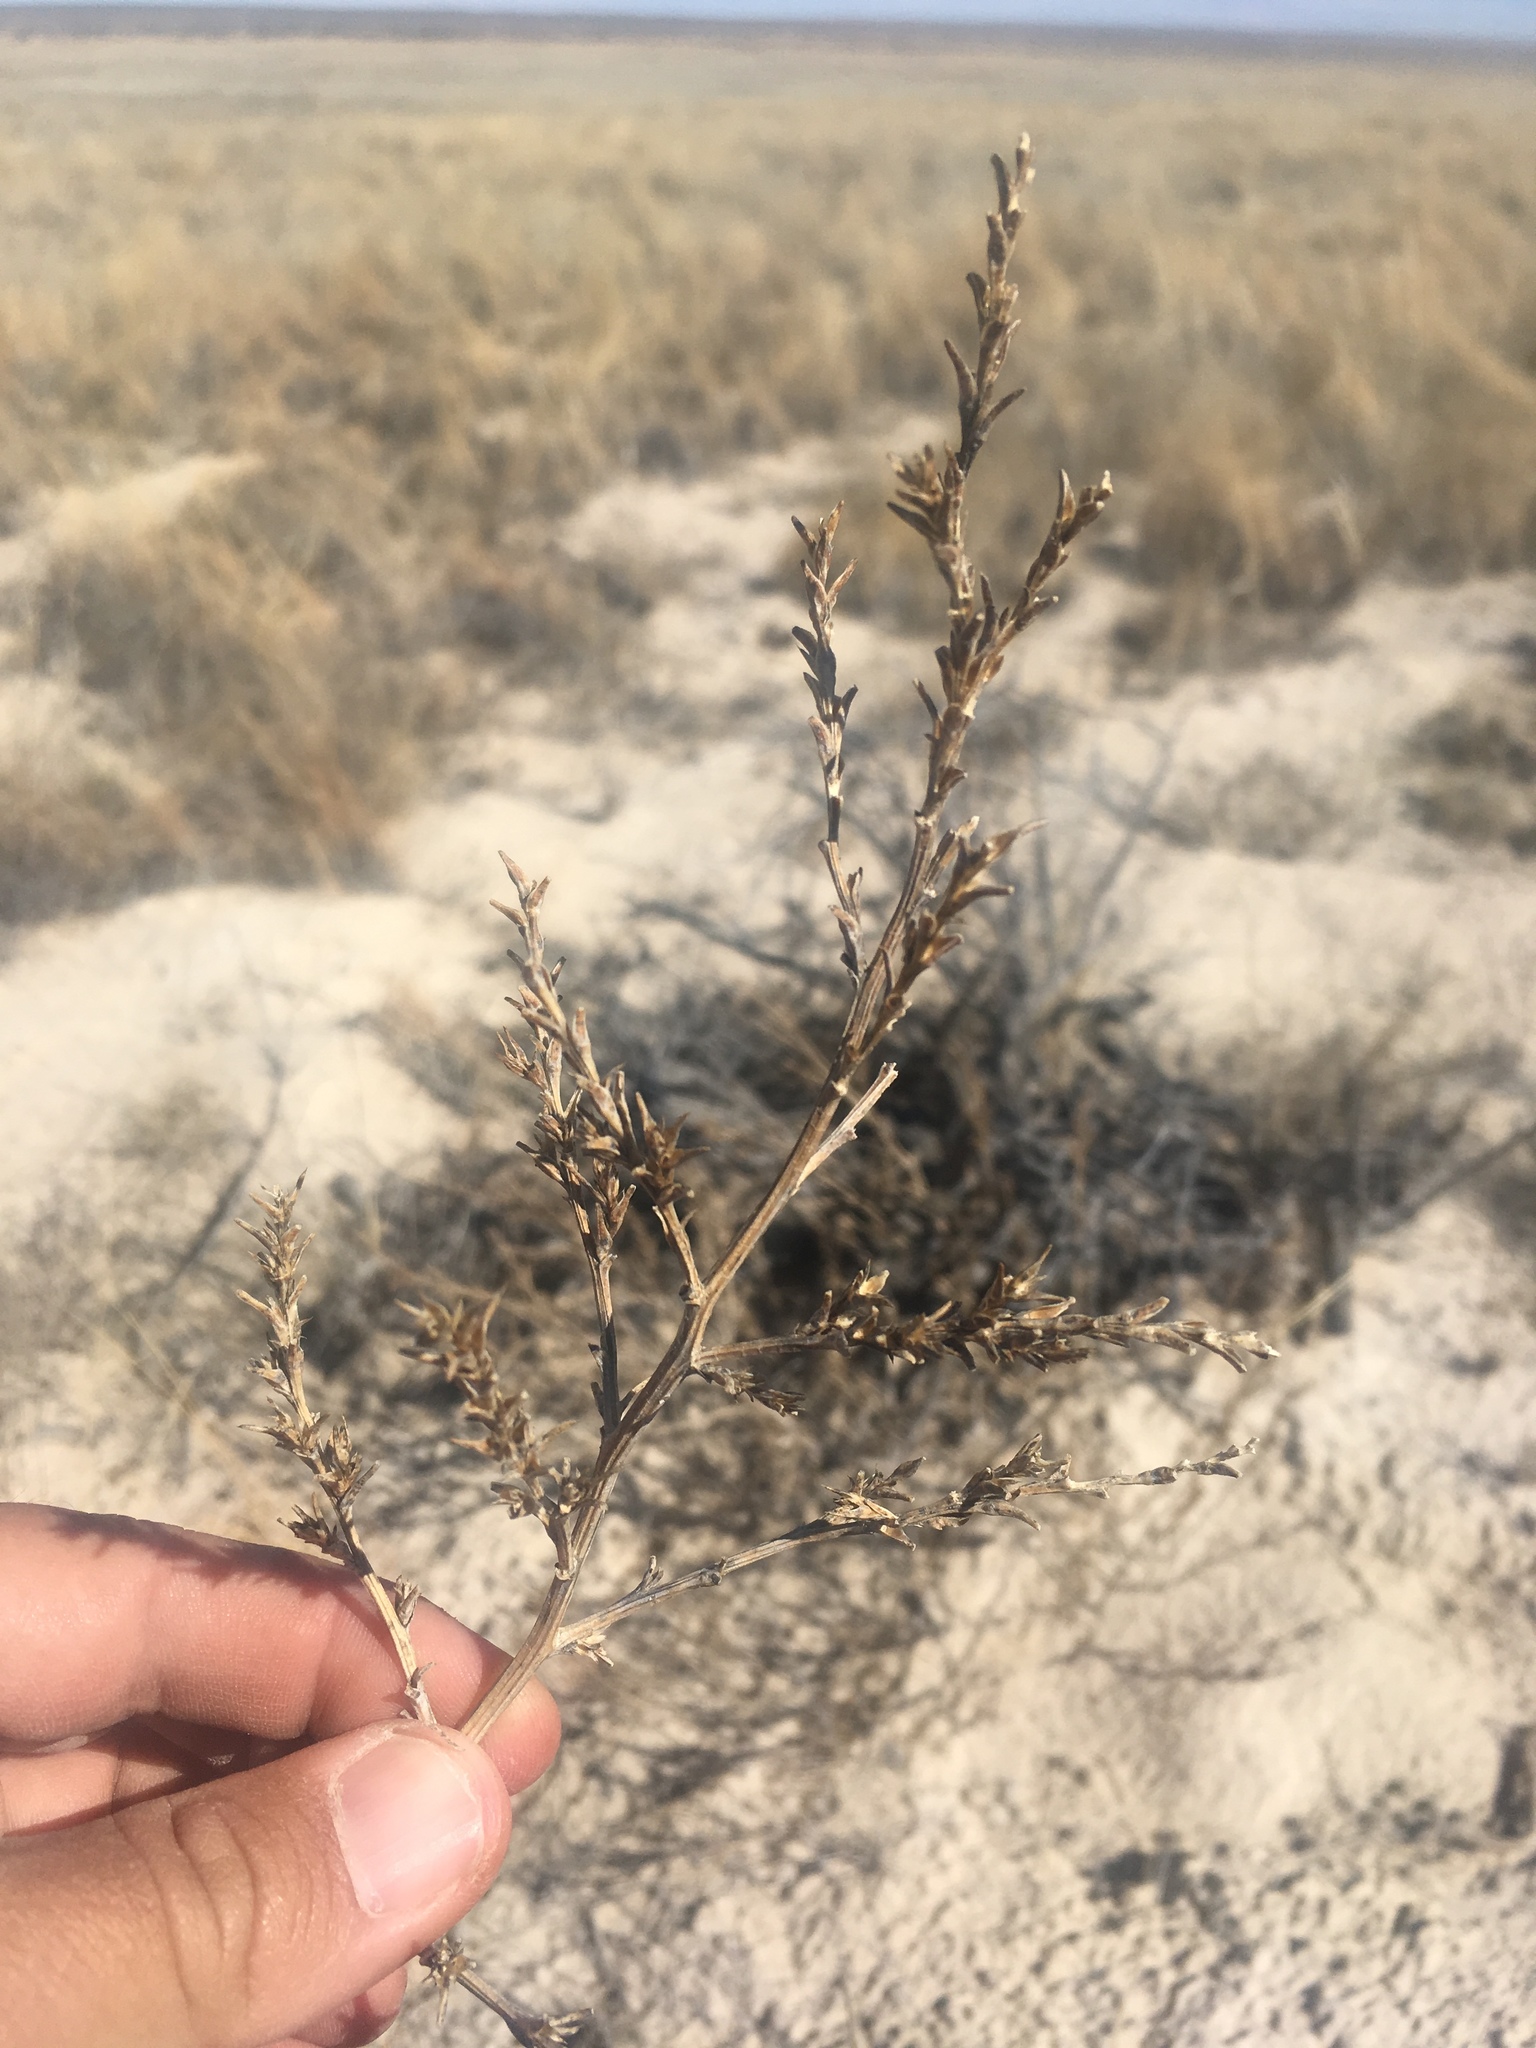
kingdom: Plantae
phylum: Tracheophyta
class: Magnoliopsida
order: Caryophyllales
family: Amaranthaceae
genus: Salsola
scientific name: Salsola collina
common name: Tumbleweed
